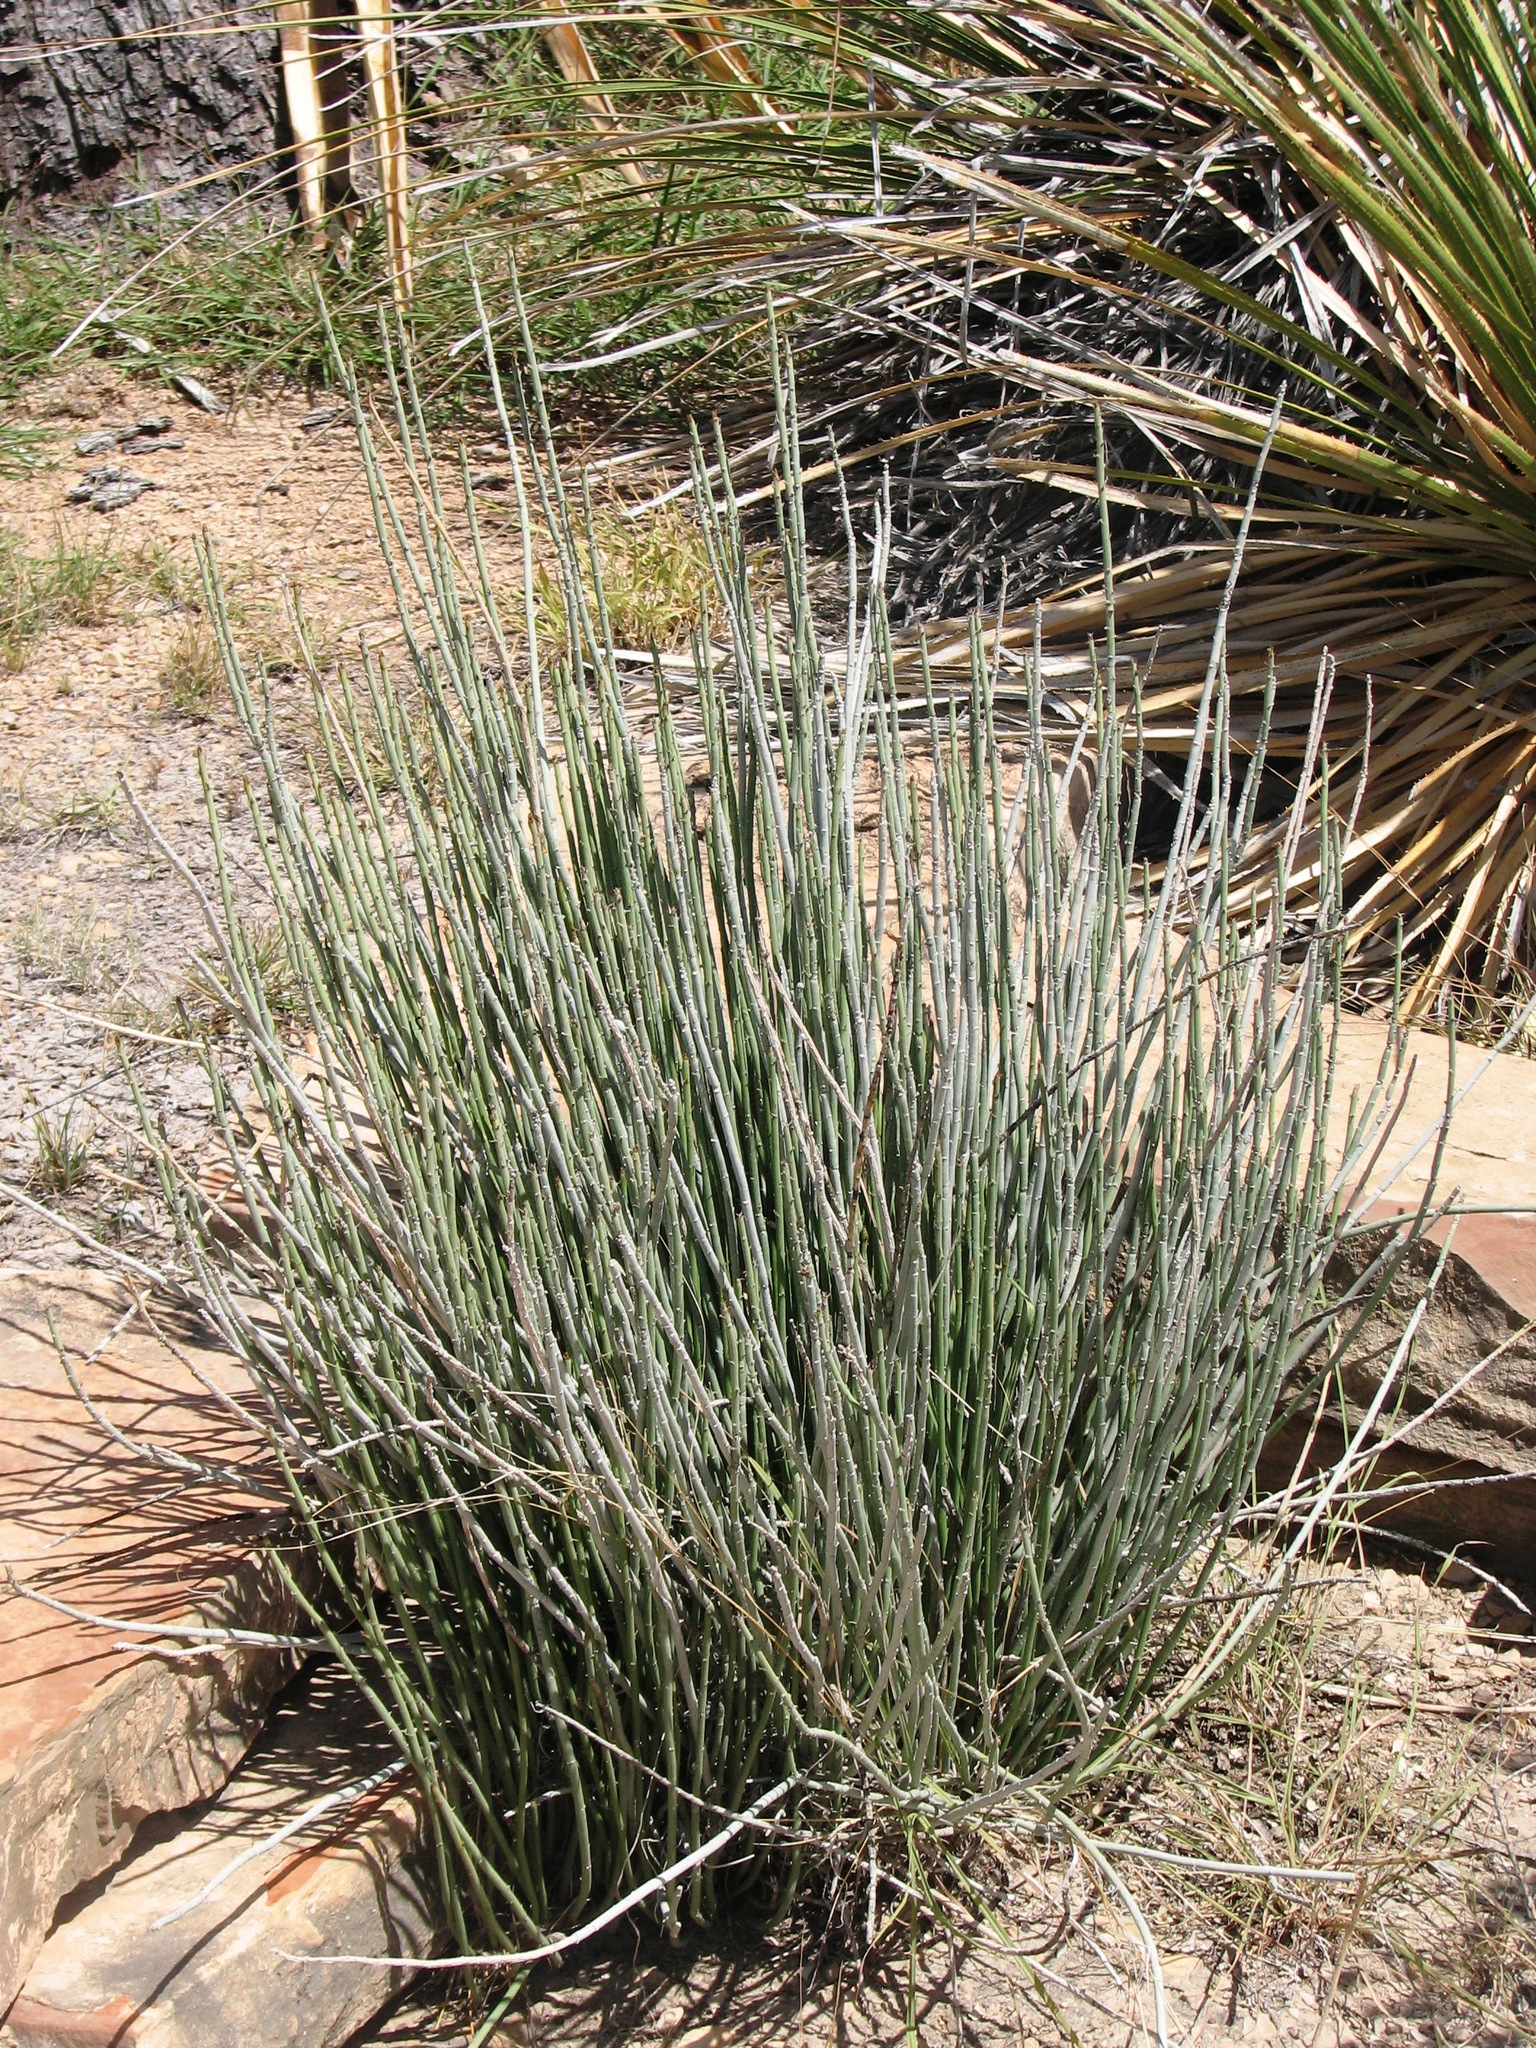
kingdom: Plantae
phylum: Tracheophyta
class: Magnoliopsida
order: Malpighiales
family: Euphorbiaceae
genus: Euphorbia
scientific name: Euphorbia antisyphilitica
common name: Candelilla
